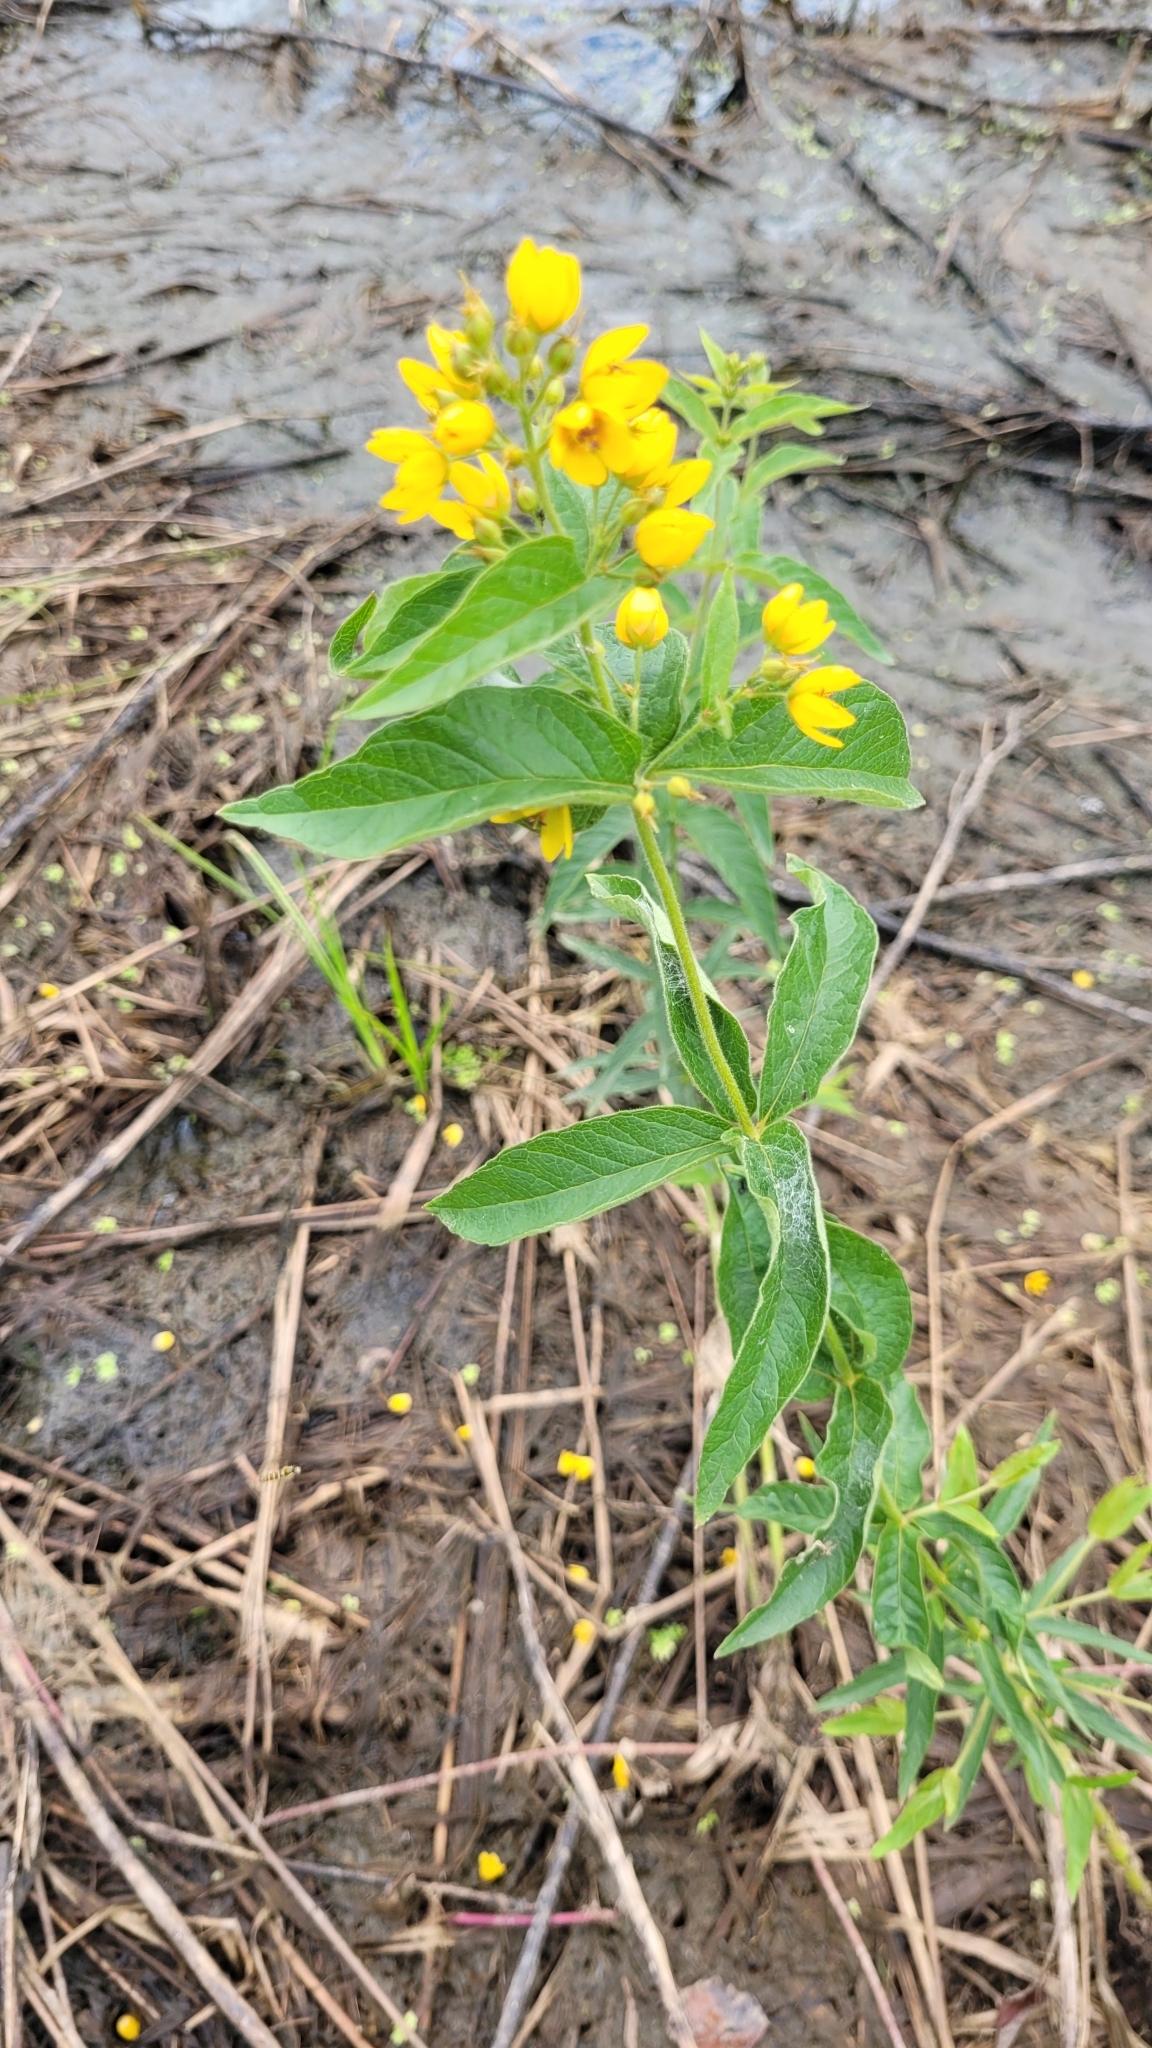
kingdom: Plantae
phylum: Tracheophyta
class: Magnoliopsida
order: Ericales
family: Primulaceae
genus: Lysimachia
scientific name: Lysimachia vulgaris
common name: Yellow loosestrife
